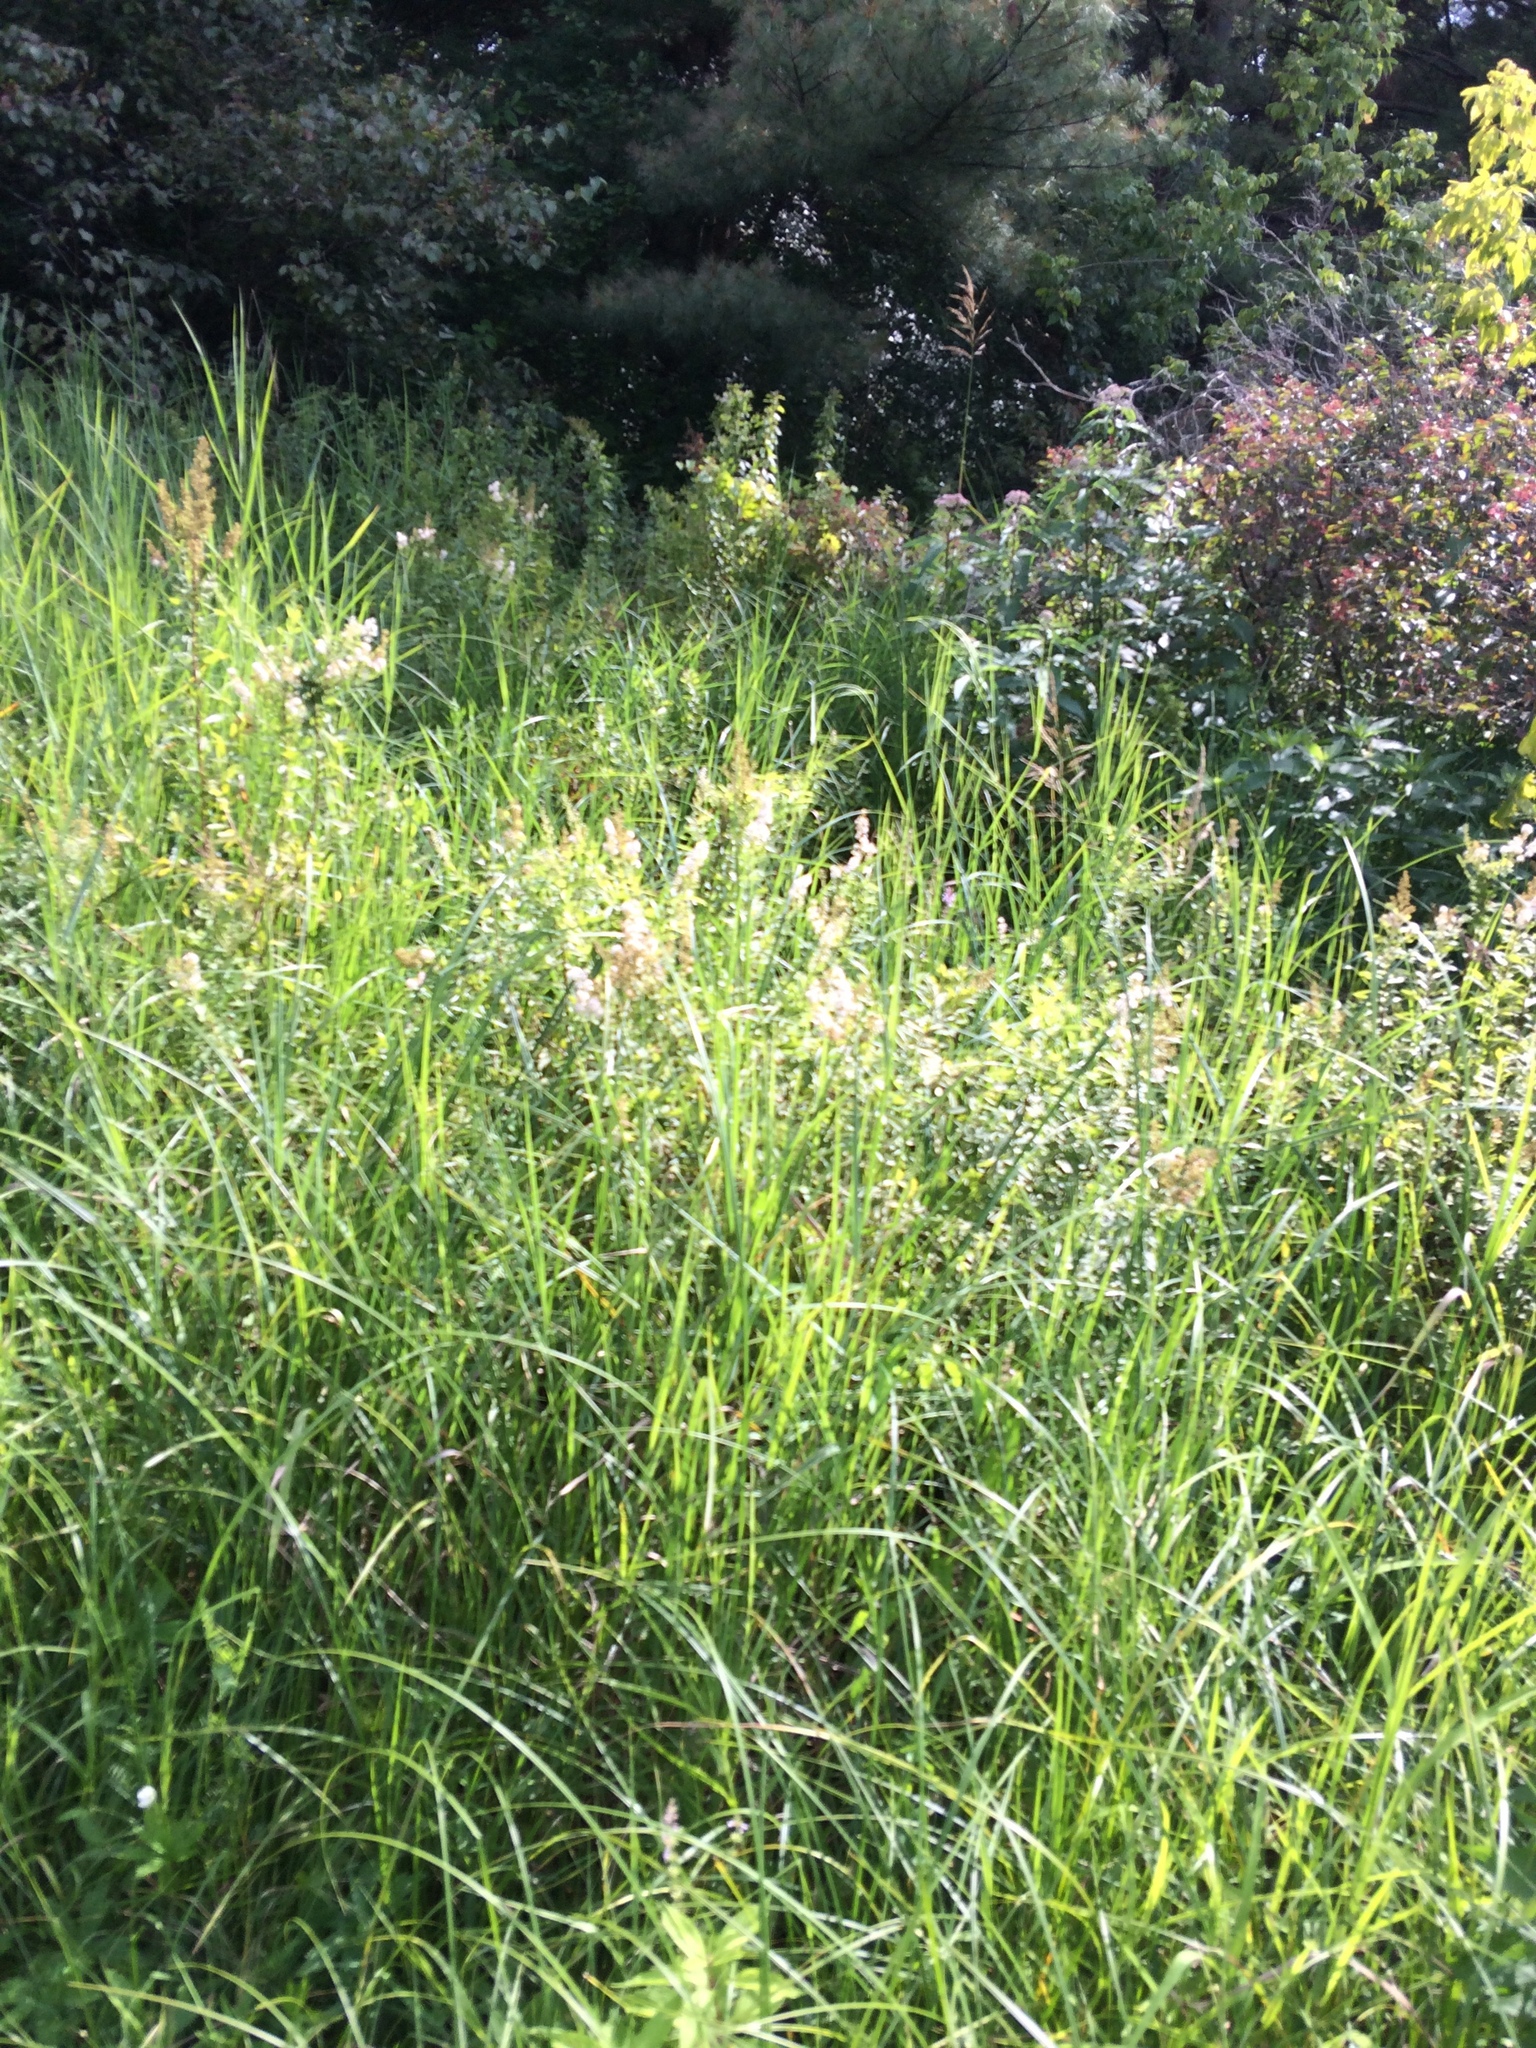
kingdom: Plantae
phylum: Tracheophyta
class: Magnoliopsida
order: Rosales
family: Rosaceae
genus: Spiraea
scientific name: Spiraea alba
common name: Pale bridewort
